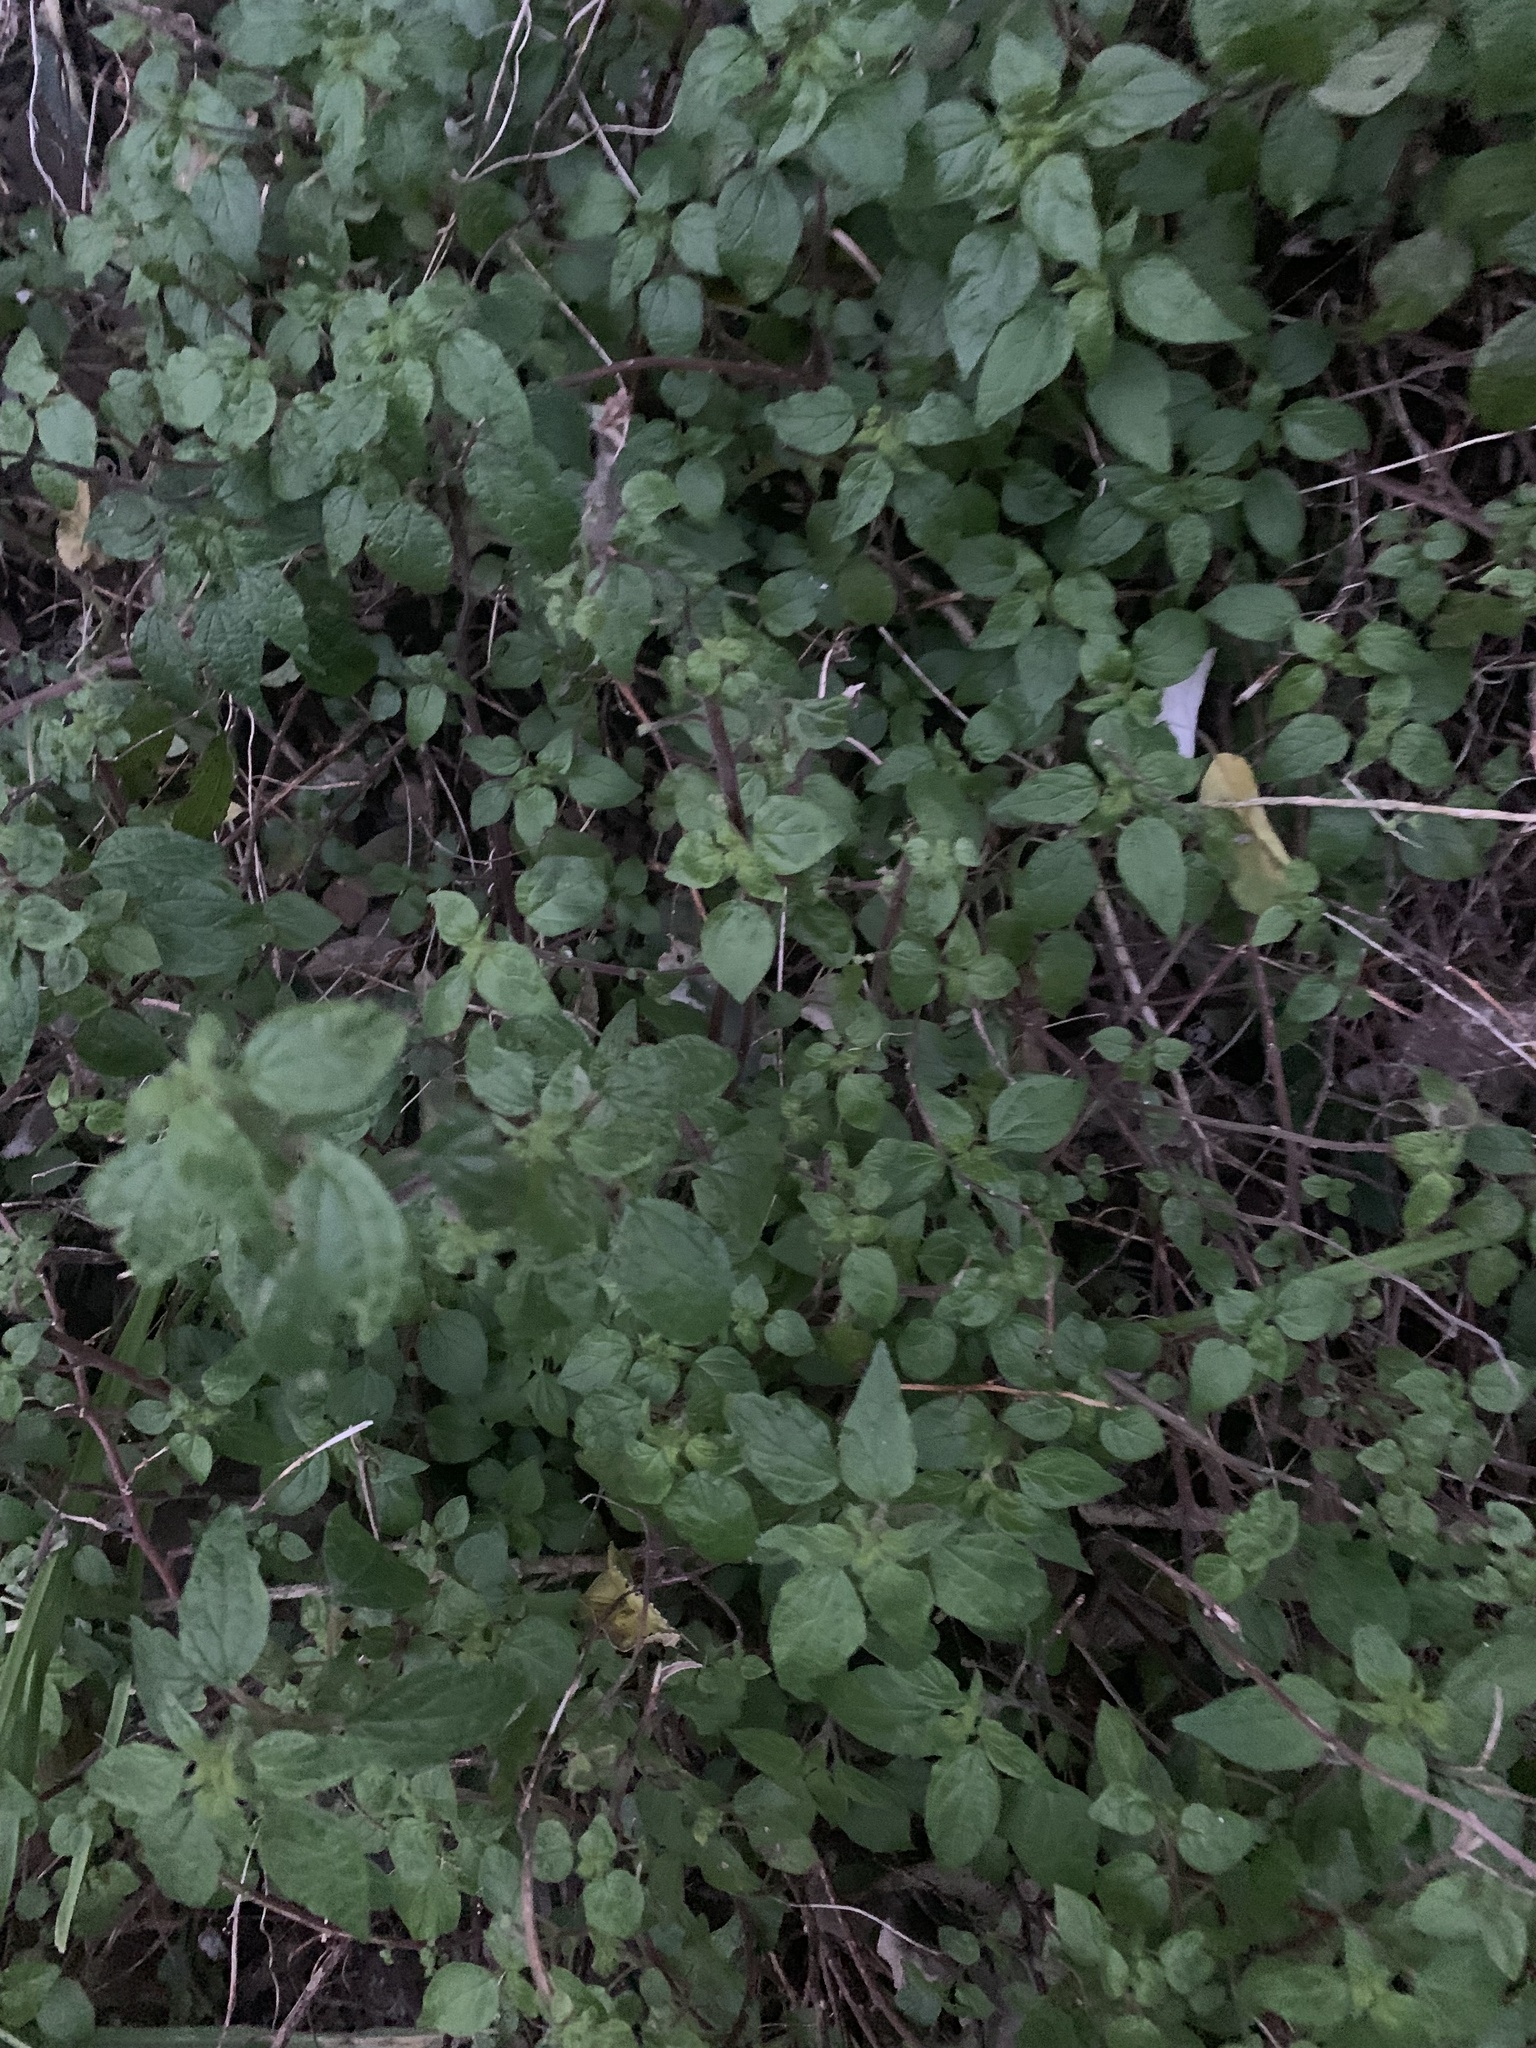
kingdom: Plantae
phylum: Tracheophyta
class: Magnoliopsida
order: Rosales
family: Urticaceae
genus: Parietaria
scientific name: Parietaria judaica
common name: Pellitory-of-the-wall
